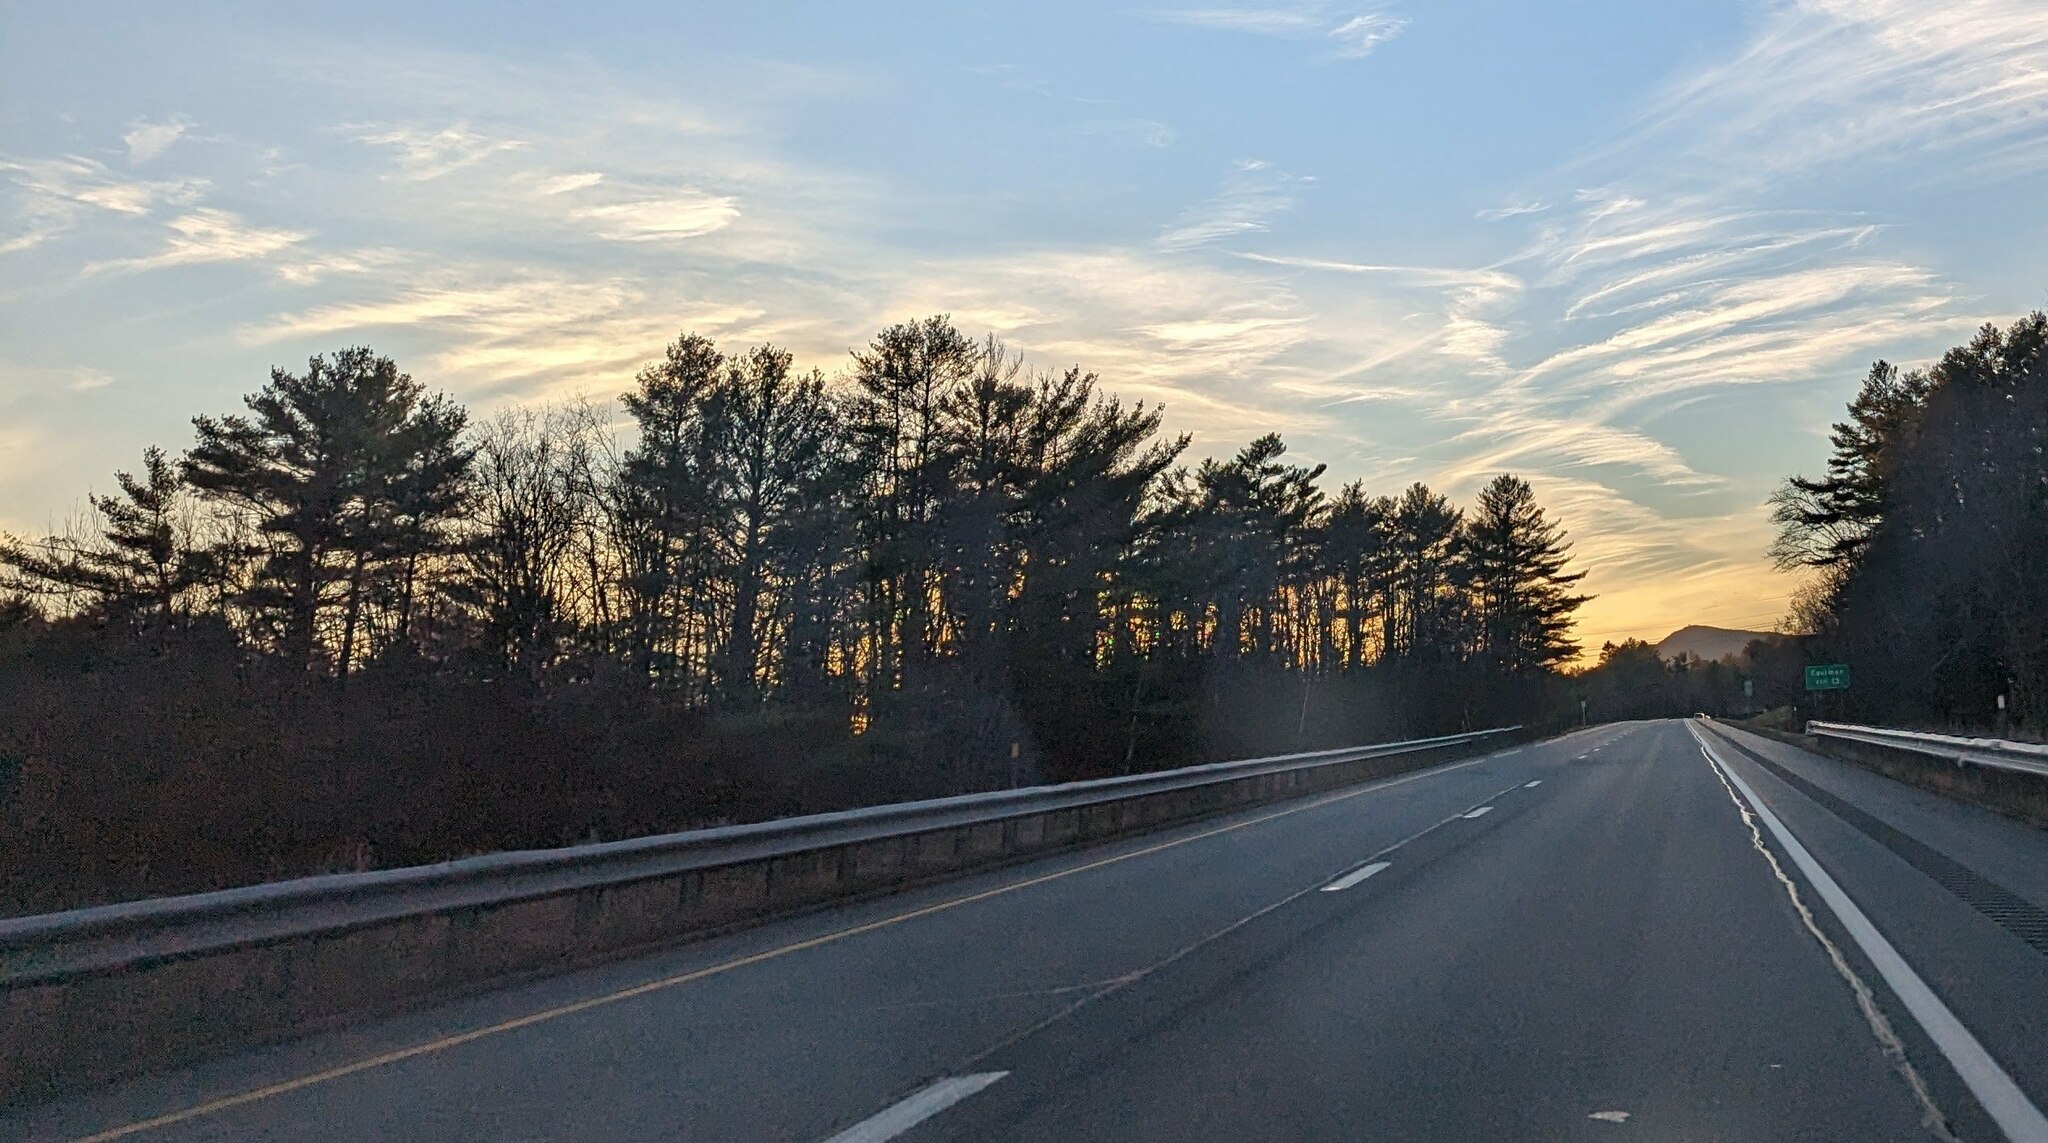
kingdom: Plantae
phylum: Tracheophyta
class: Pinopsida
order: Pinales
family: Pinaceae
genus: Pinus
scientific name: Pinus strobus
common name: Weymouth pine
